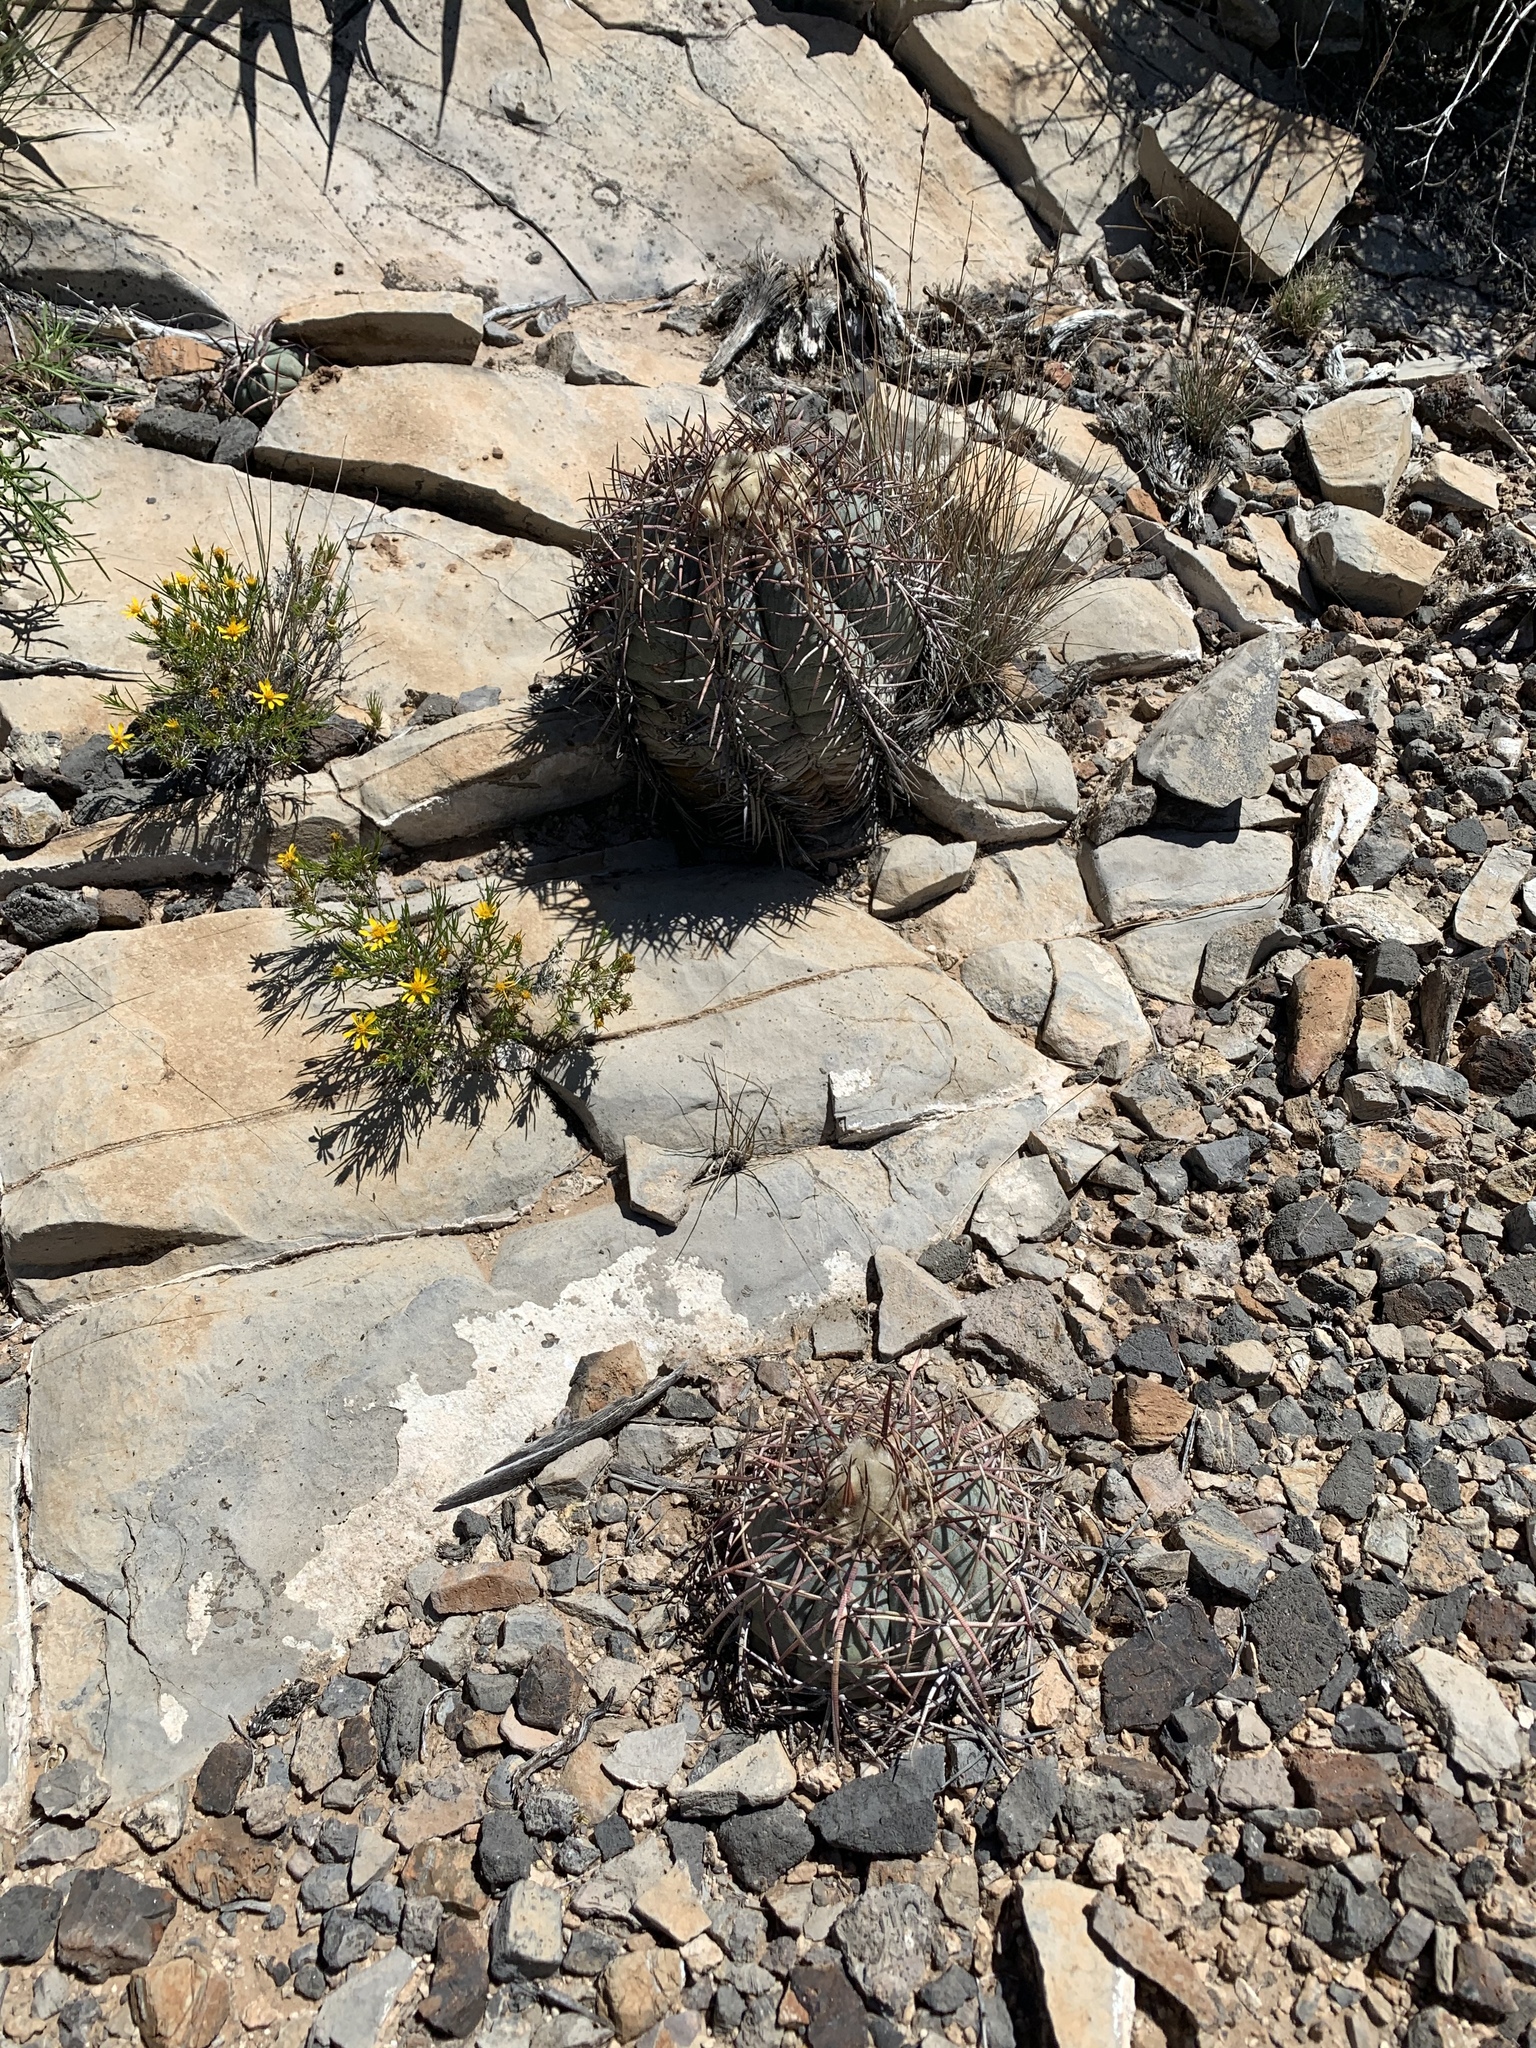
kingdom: Plantae
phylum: Tracheophyta
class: Magnoliopsida
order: Caryophyllales
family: Cactaceae
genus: Echinocactus
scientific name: Echinocactus horizonthalonius
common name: Devilshead
